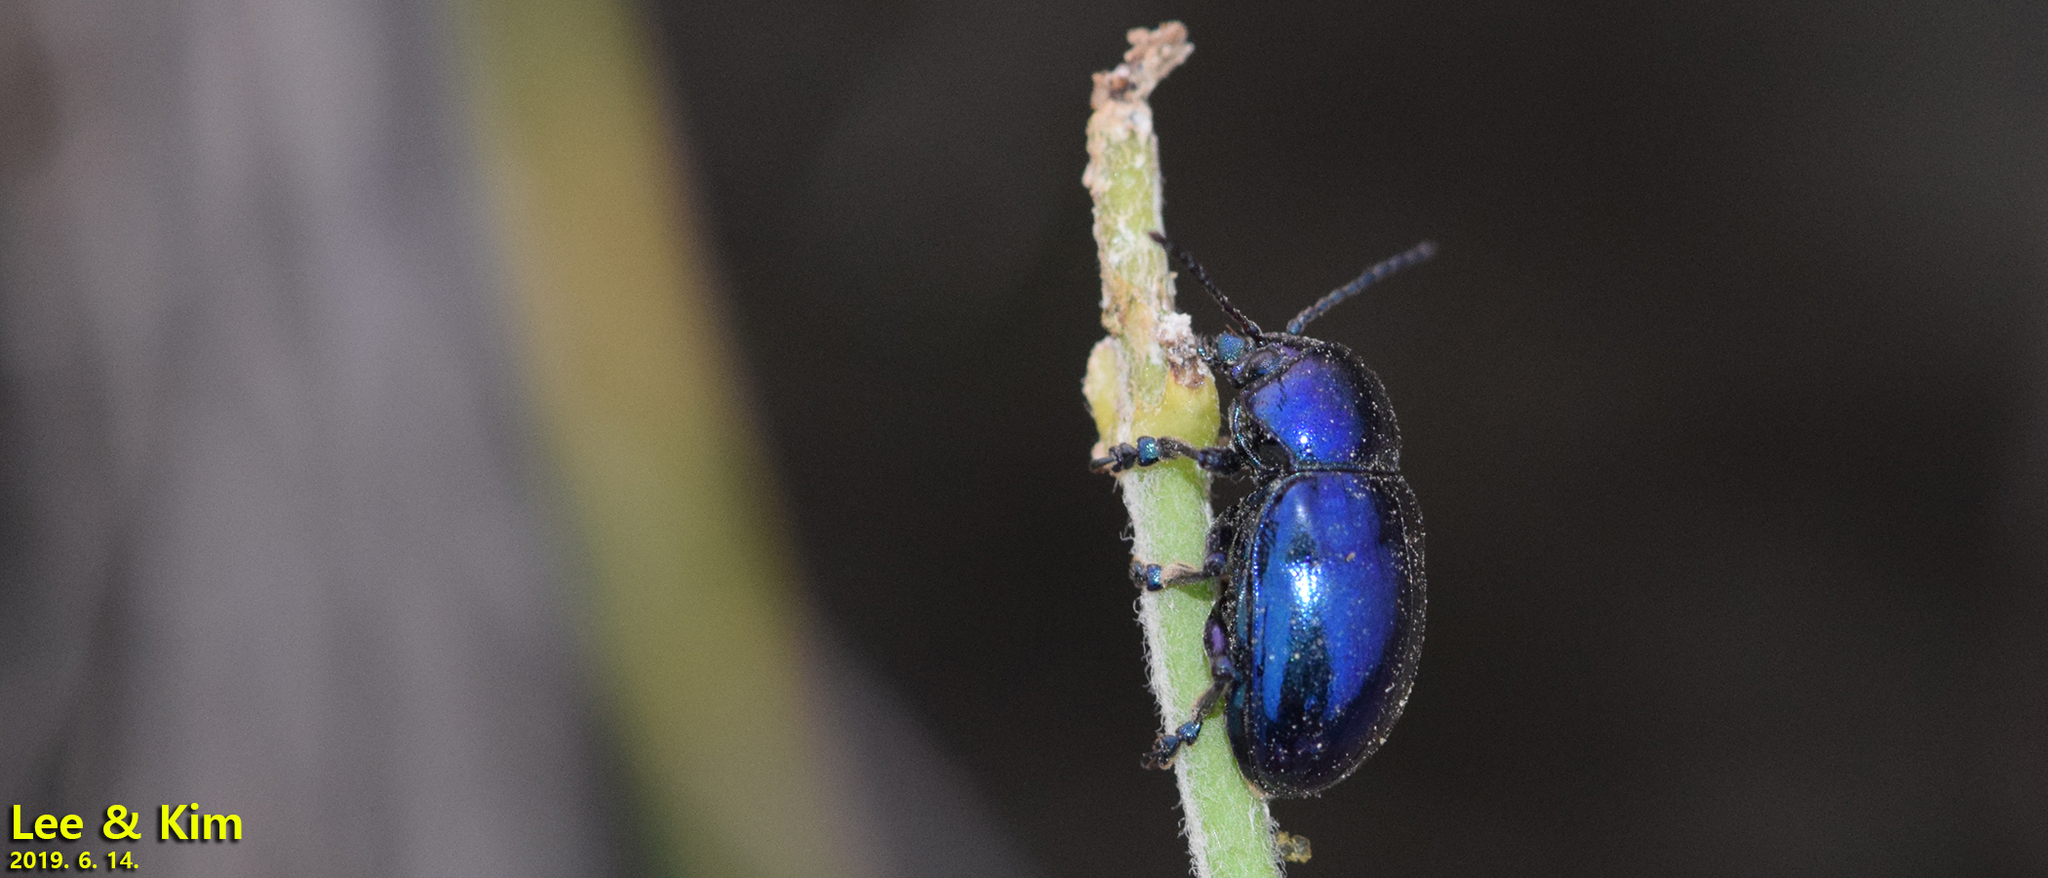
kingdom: Animalia
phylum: Arthropoda
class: Insecta
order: Coleoptera
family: Chrysomelidae
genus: Chrysochus
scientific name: Chrysochus chinensis
